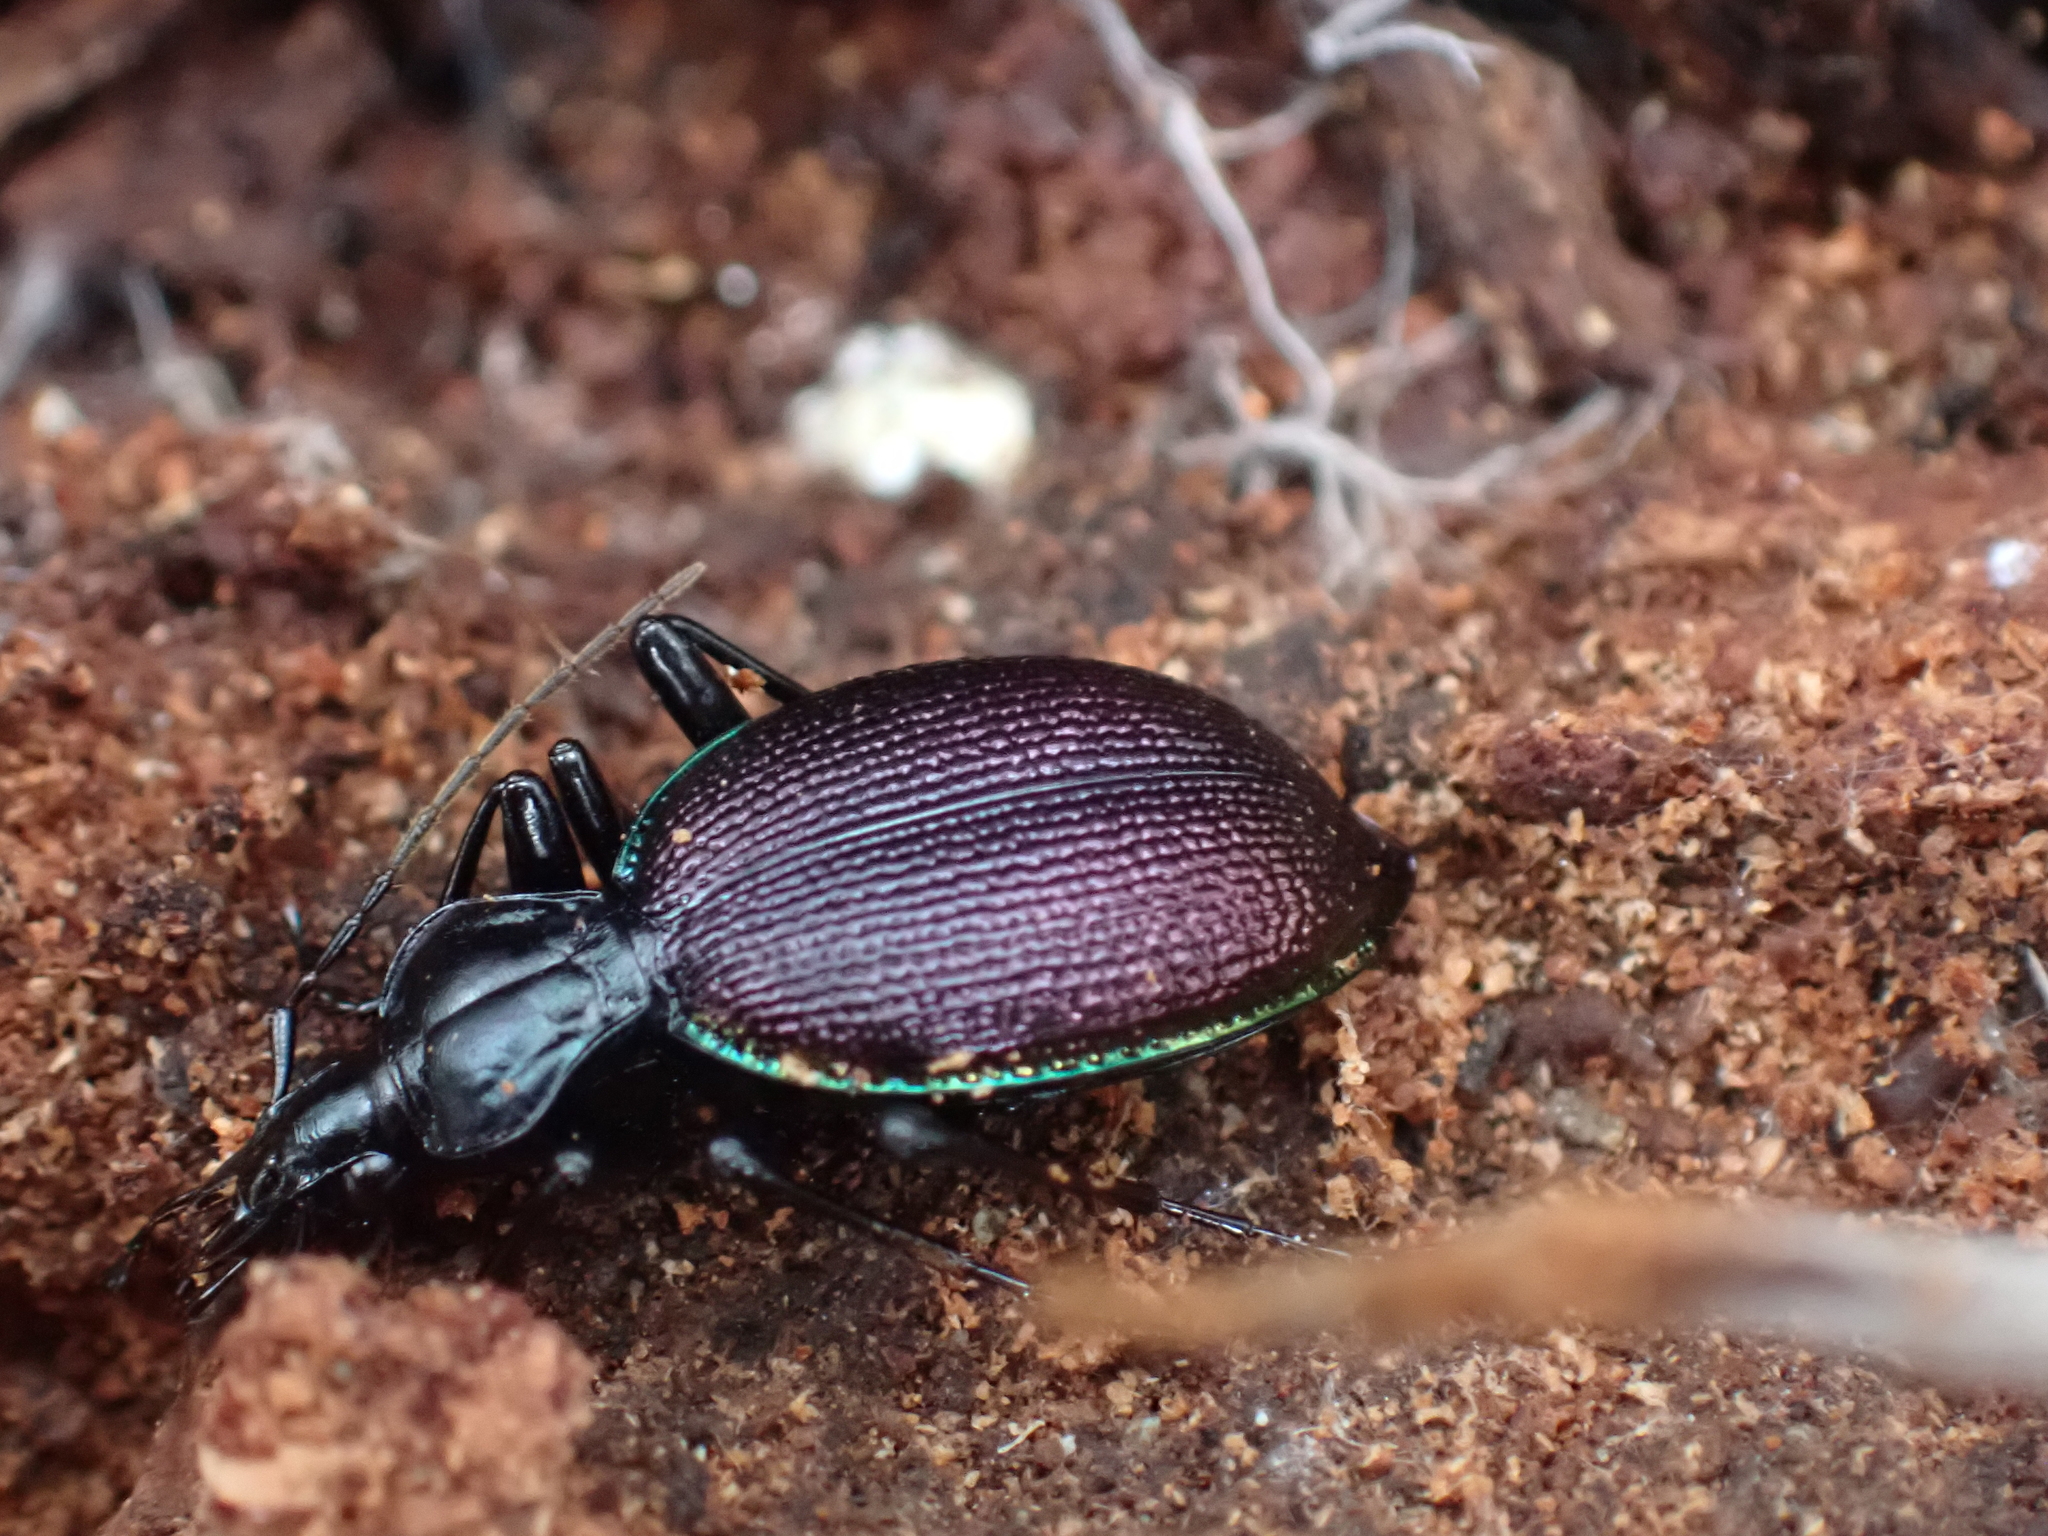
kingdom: Animalia
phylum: Arthropoda
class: Insecta
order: Coleoptera
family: Carabidae
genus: Scaphinotus
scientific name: Scaphinotus marginatus
